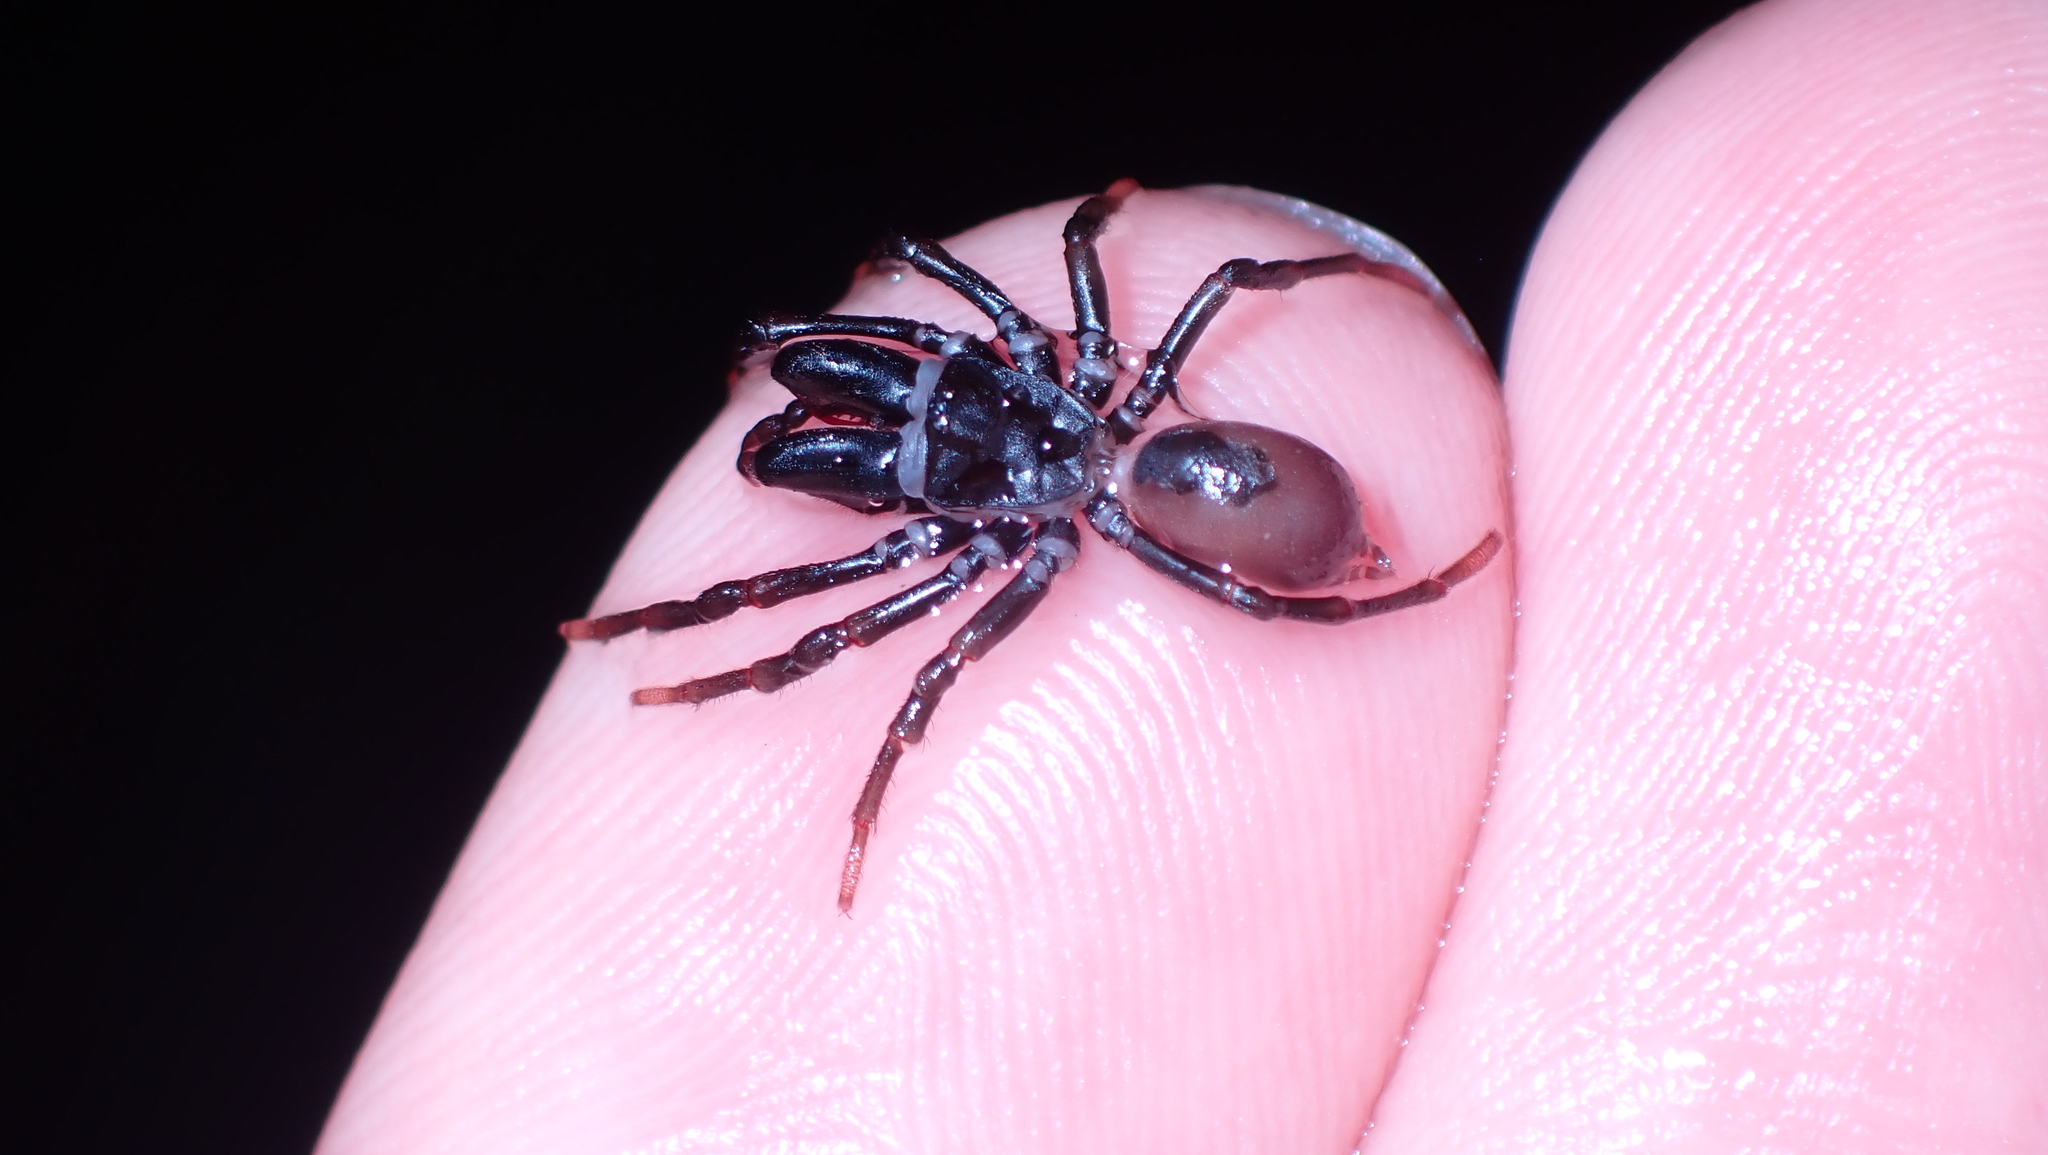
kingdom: Animalia
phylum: Arthropoda
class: Arachnida
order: Araneae
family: Atypidae
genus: Atypus
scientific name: Atypus affinis
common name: Purse web spider
